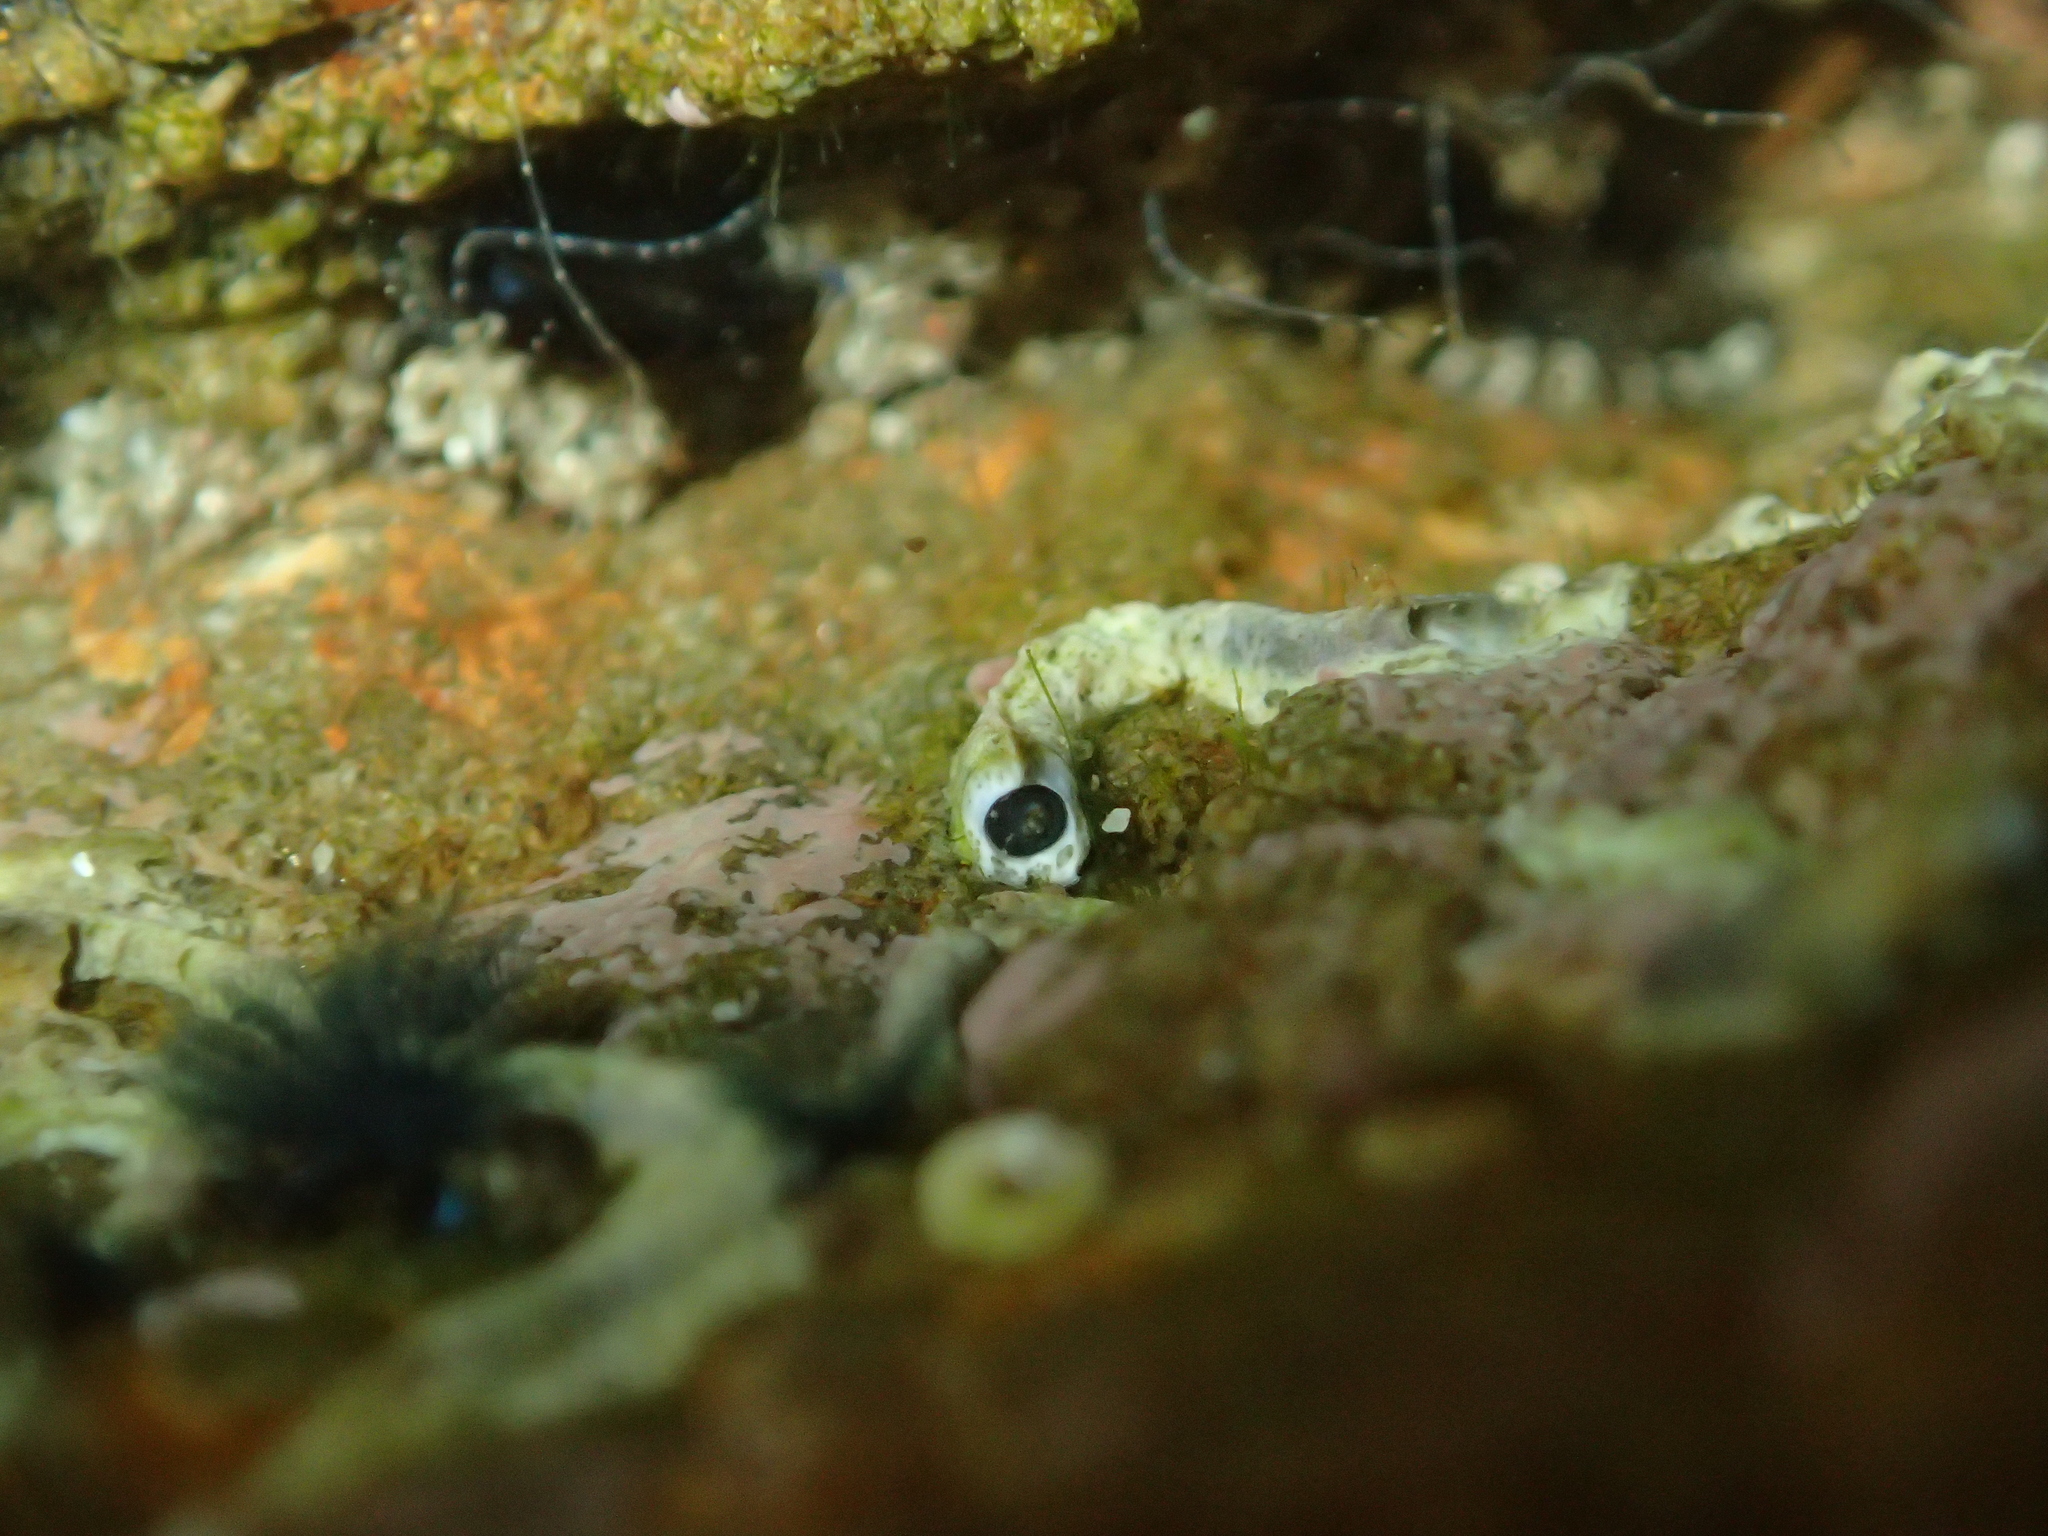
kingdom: Animalia
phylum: Annelida
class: Polychaeta
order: Sabellida
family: Serpulidae
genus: Spirobranchus
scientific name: Spirobranchus cariniferus
